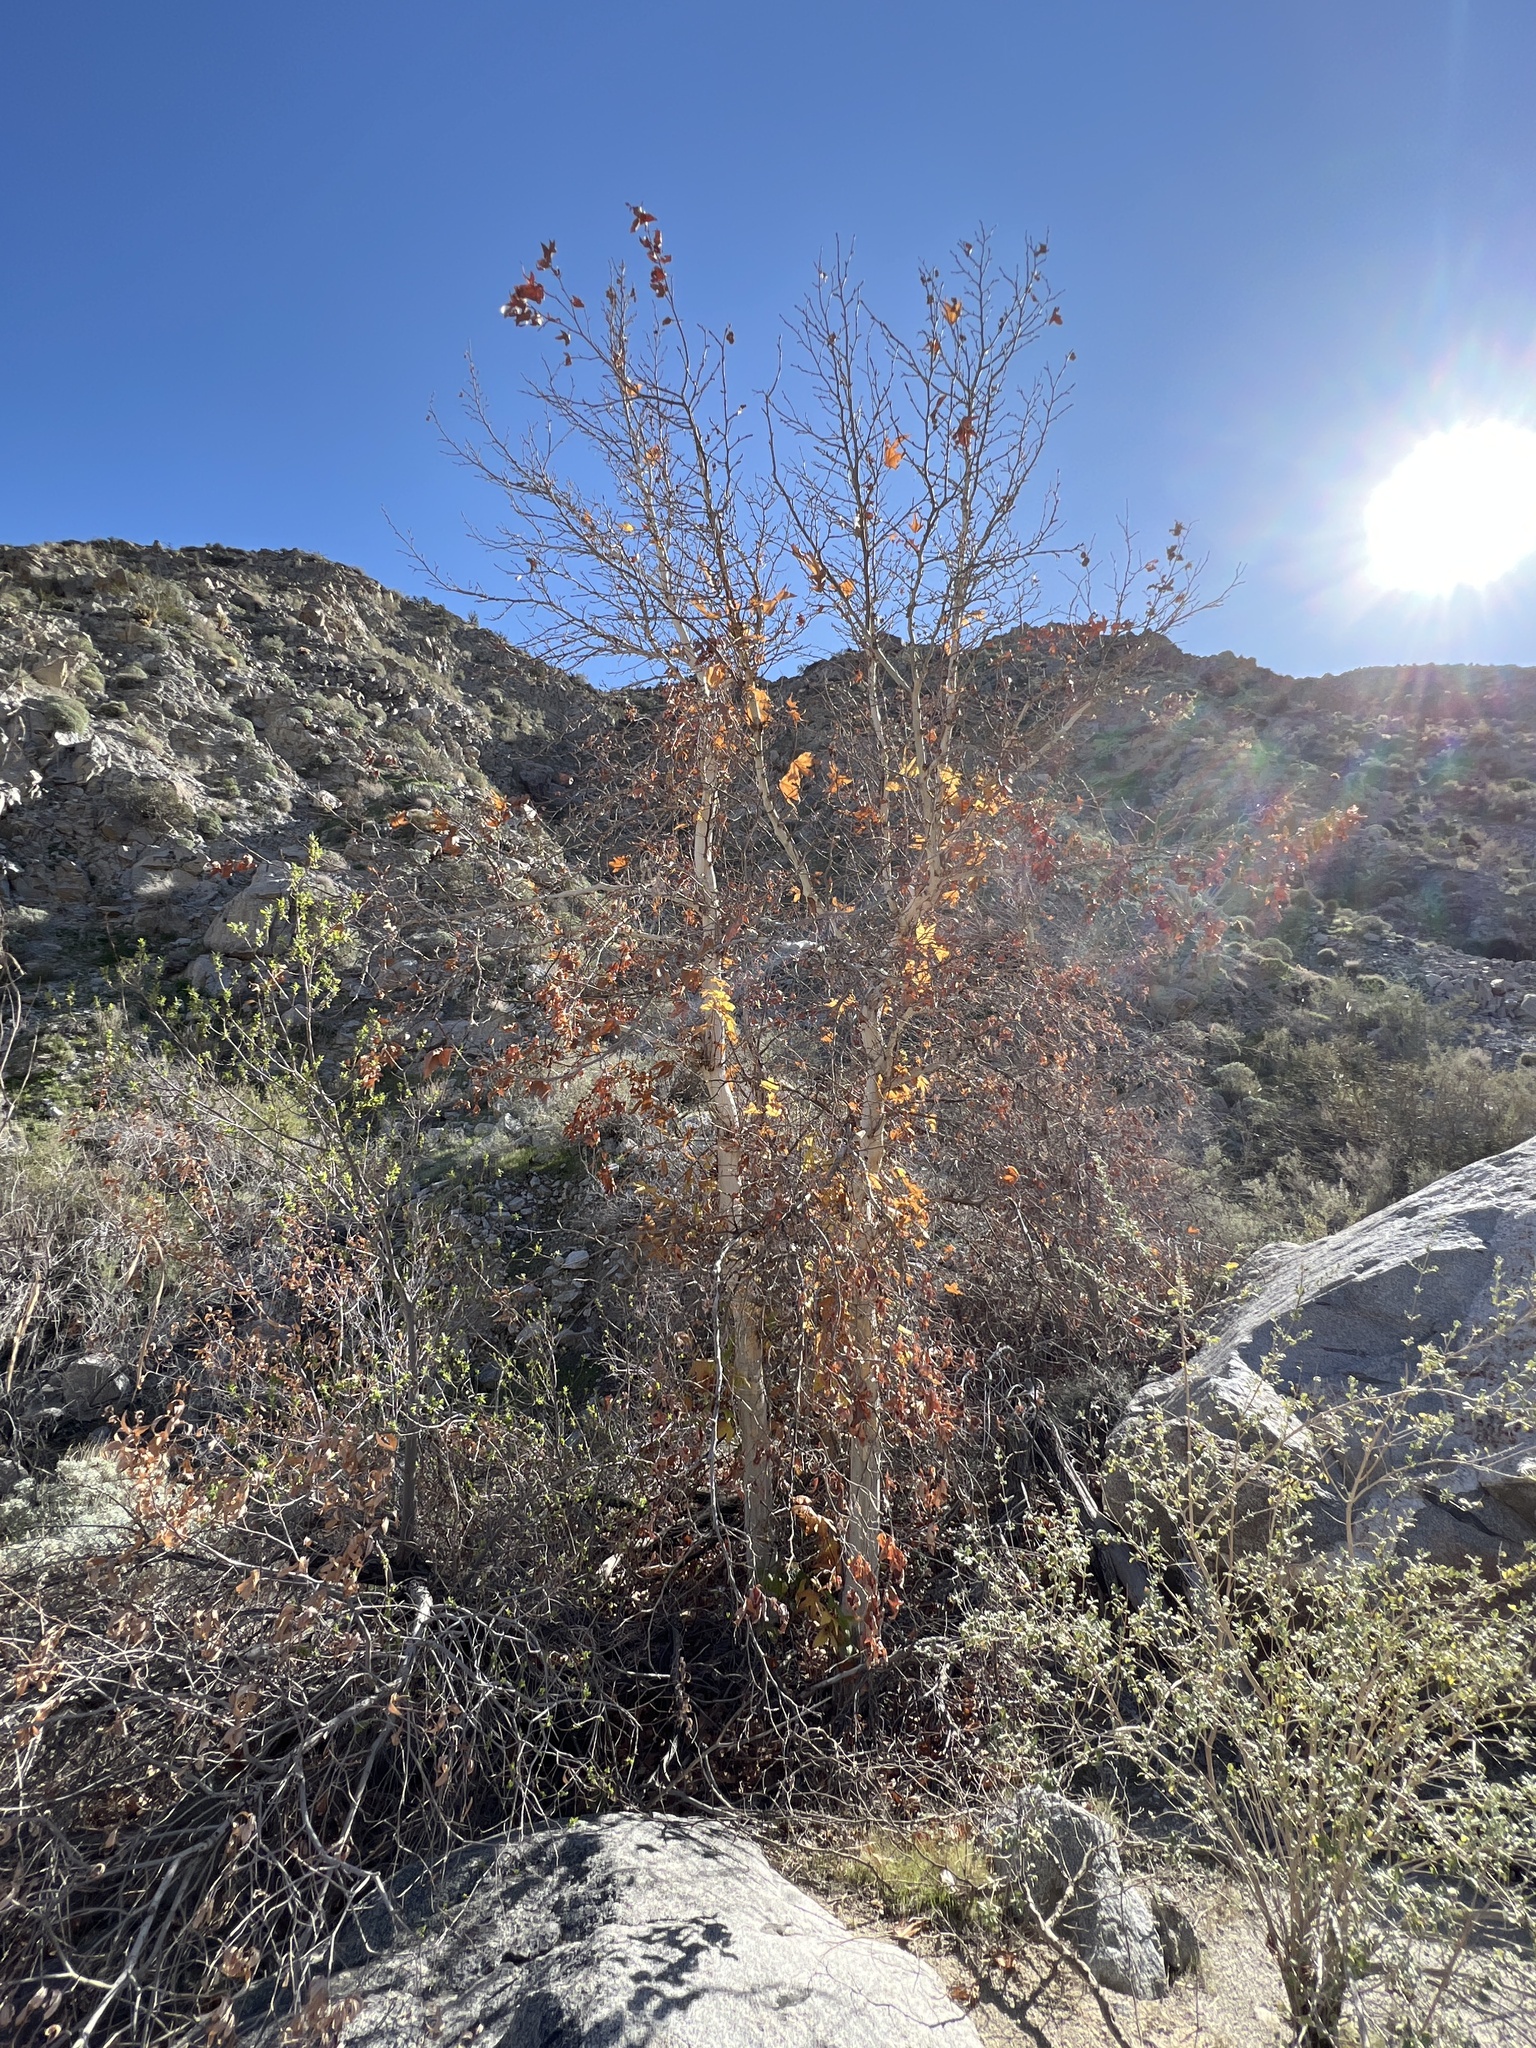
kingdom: Plantae
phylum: Tracheophyta
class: Magnoliopsida
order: Proteales
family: Platanaceae
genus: Platanus
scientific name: Platanus racemosa
